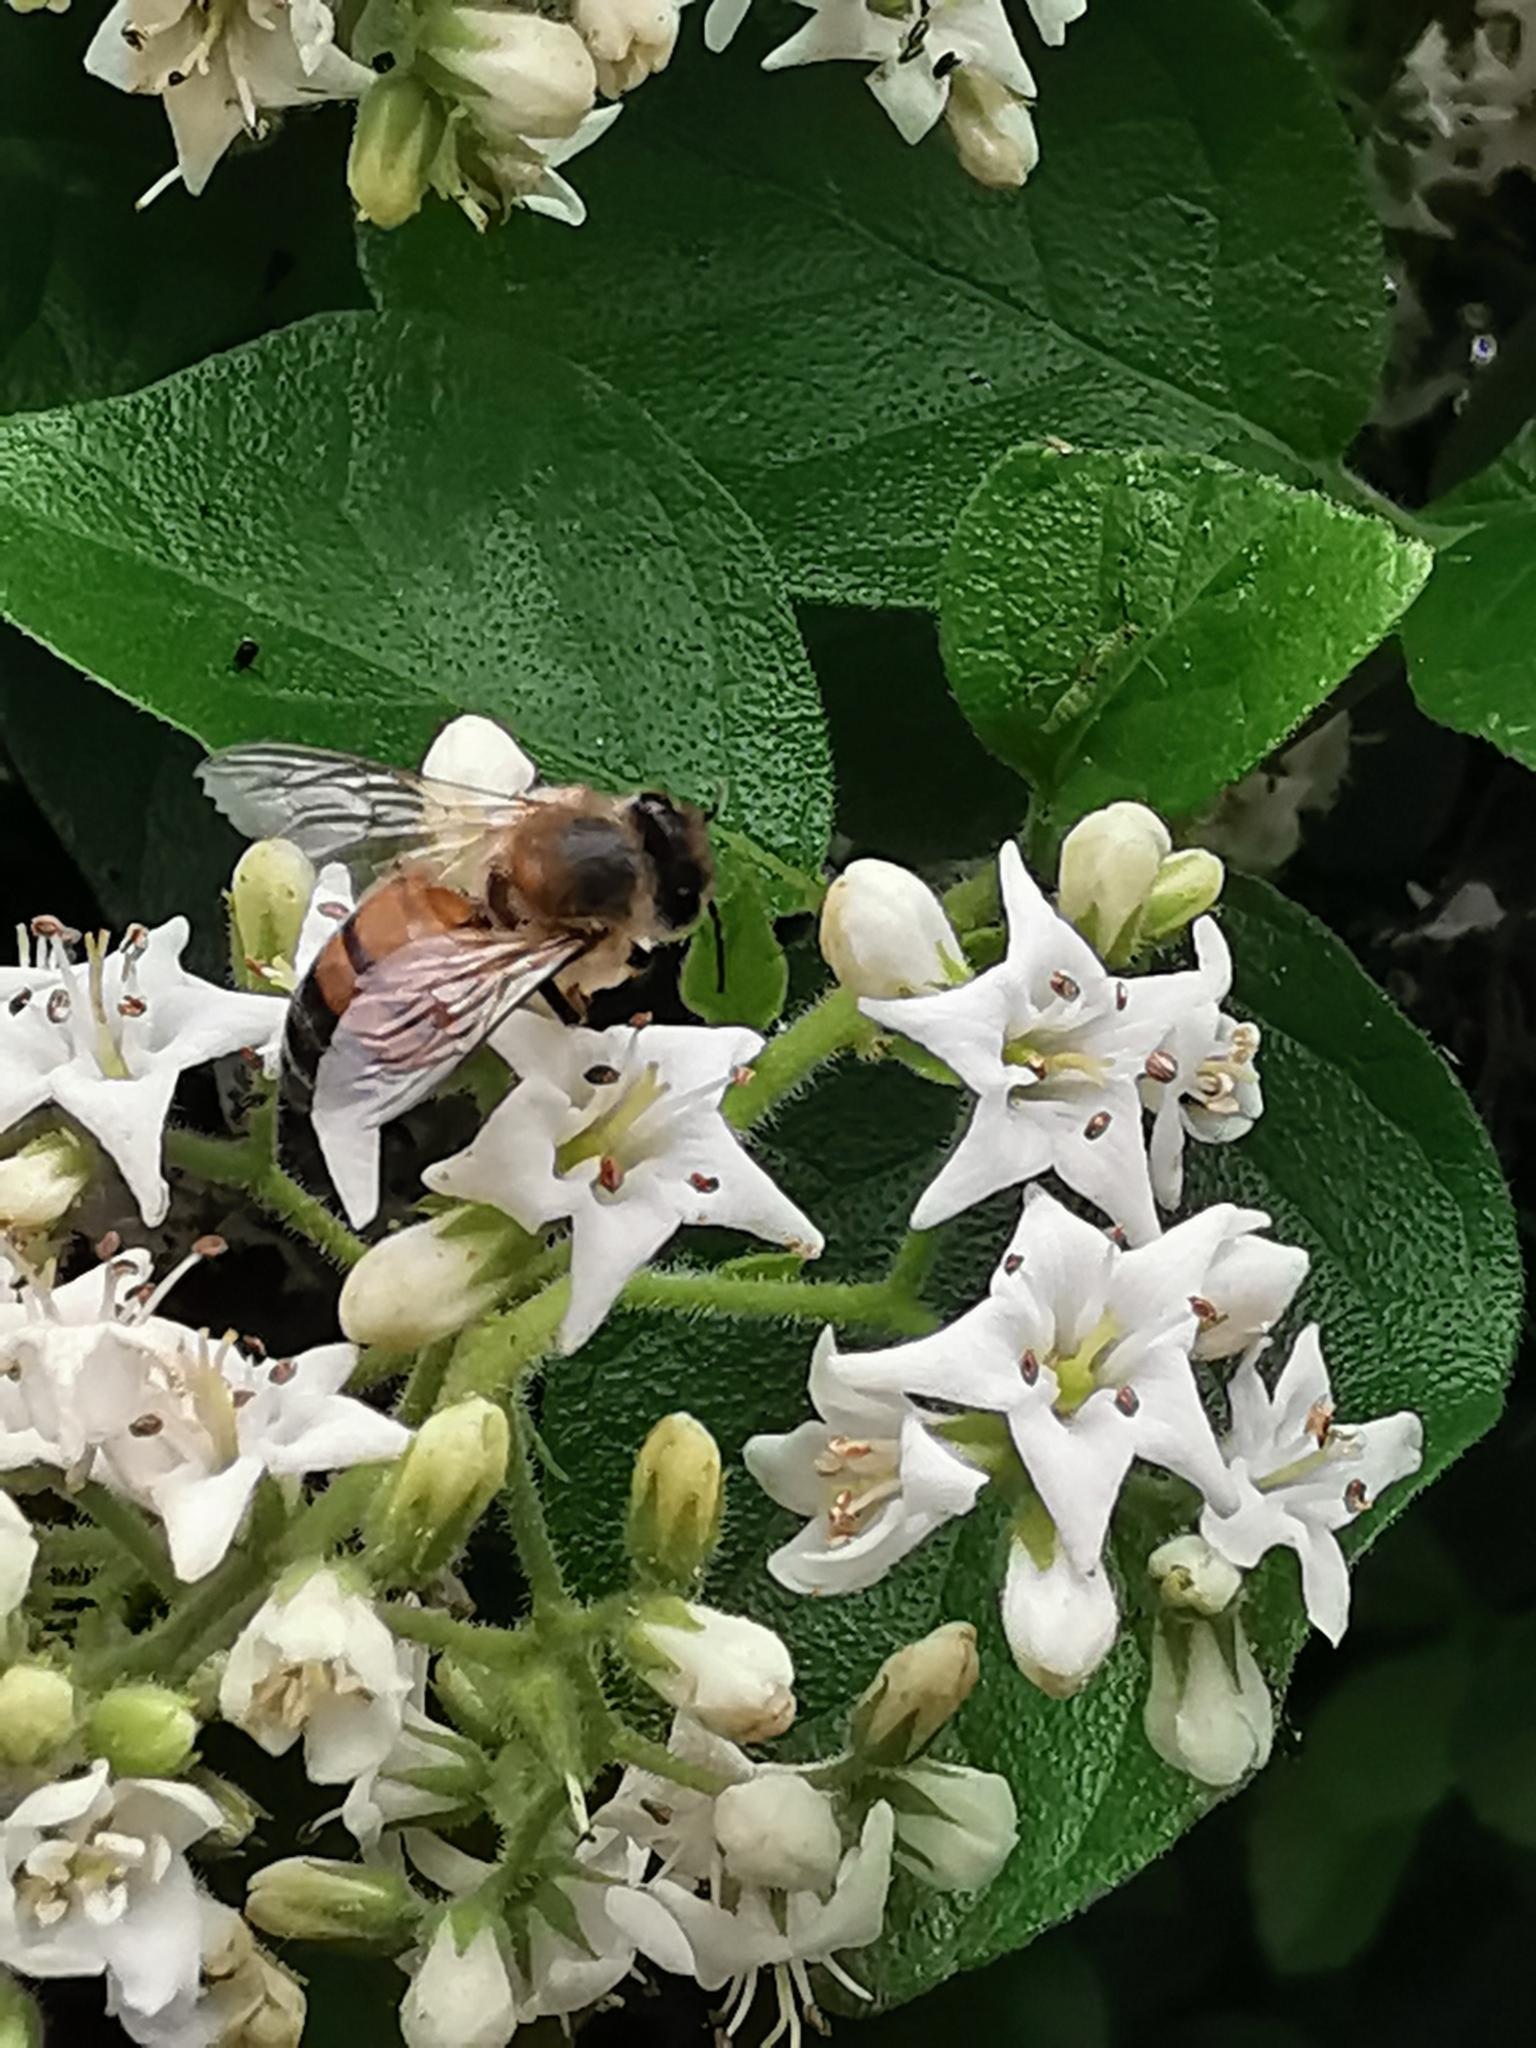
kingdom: Plantae
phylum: Tracheophyta
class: Magnoliopsida
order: Boraginales
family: Ehretiaceae
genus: Ehretia
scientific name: Ehretia anacua
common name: Sugarberry
